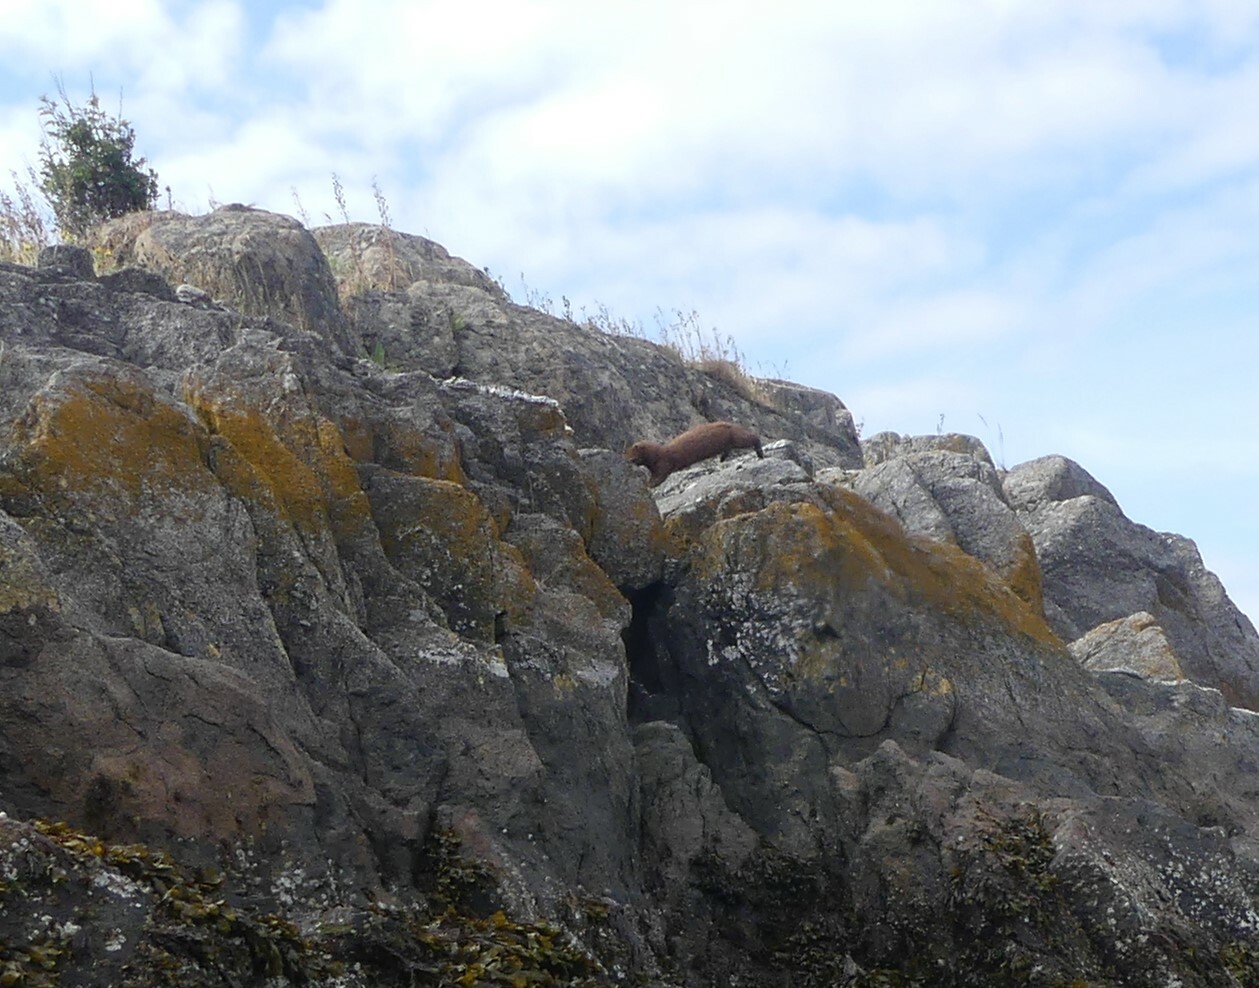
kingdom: Animalia
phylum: Chordata
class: Mammalia
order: Carnivora
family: Mustelidae
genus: Mustela
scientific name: Mustela
